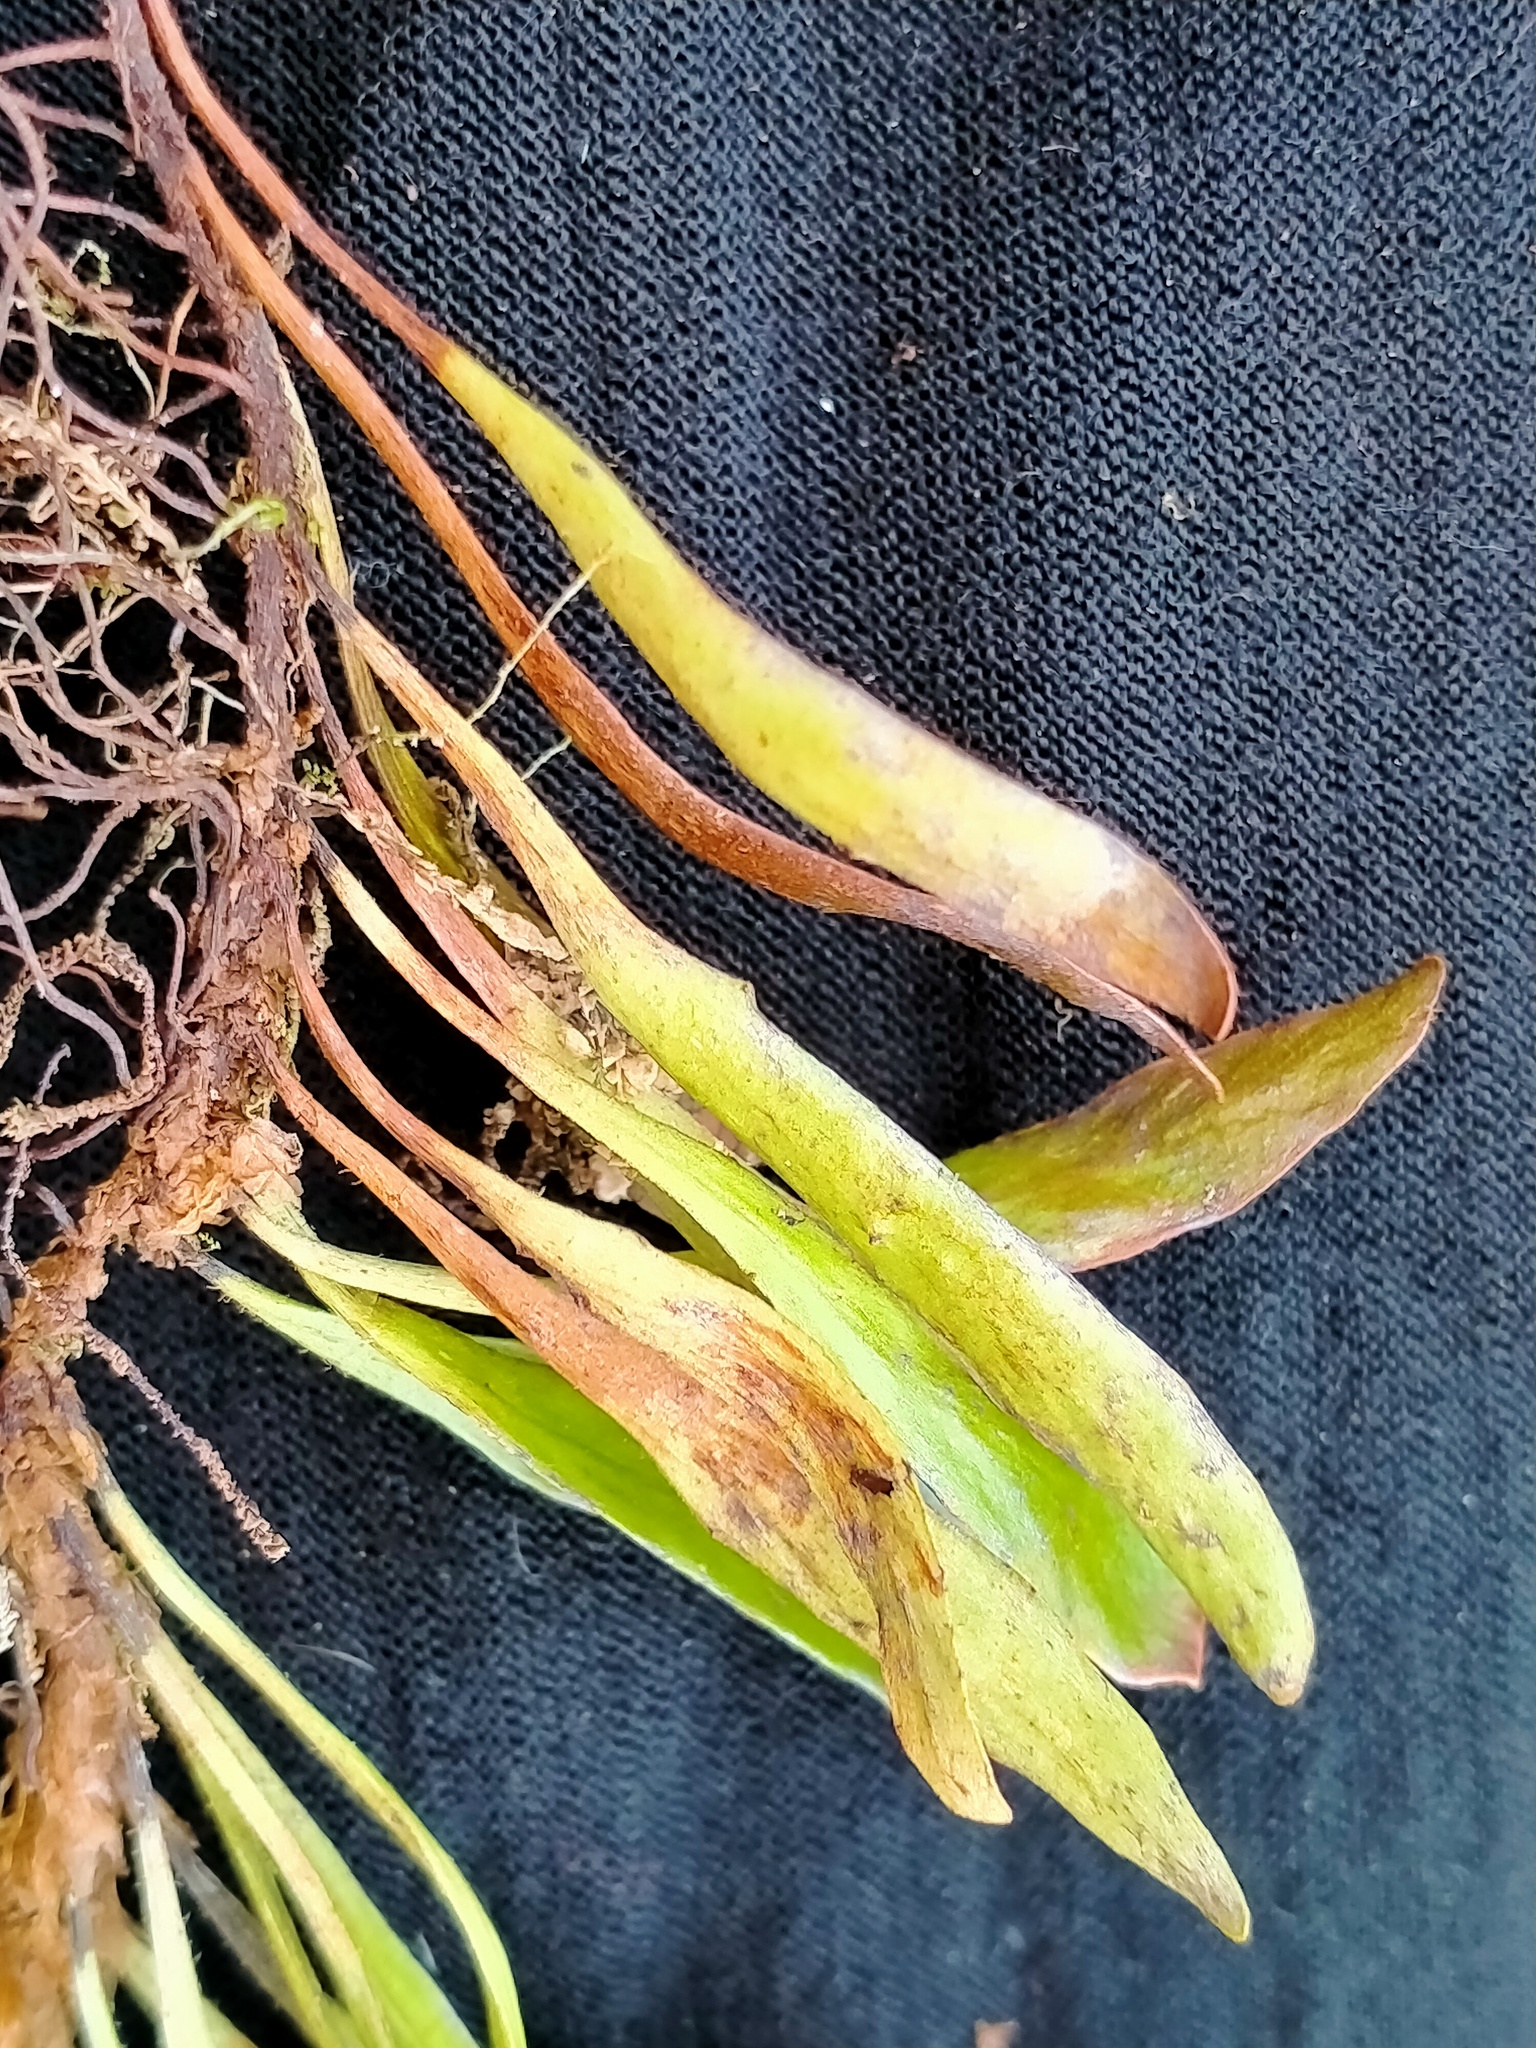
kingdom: Plantae
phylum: Tracheophyta
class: Polypodiopsida
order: Polypodiales
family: Polypodiaceae
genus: Notogrammitis
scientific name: Notogrammitis givenii
